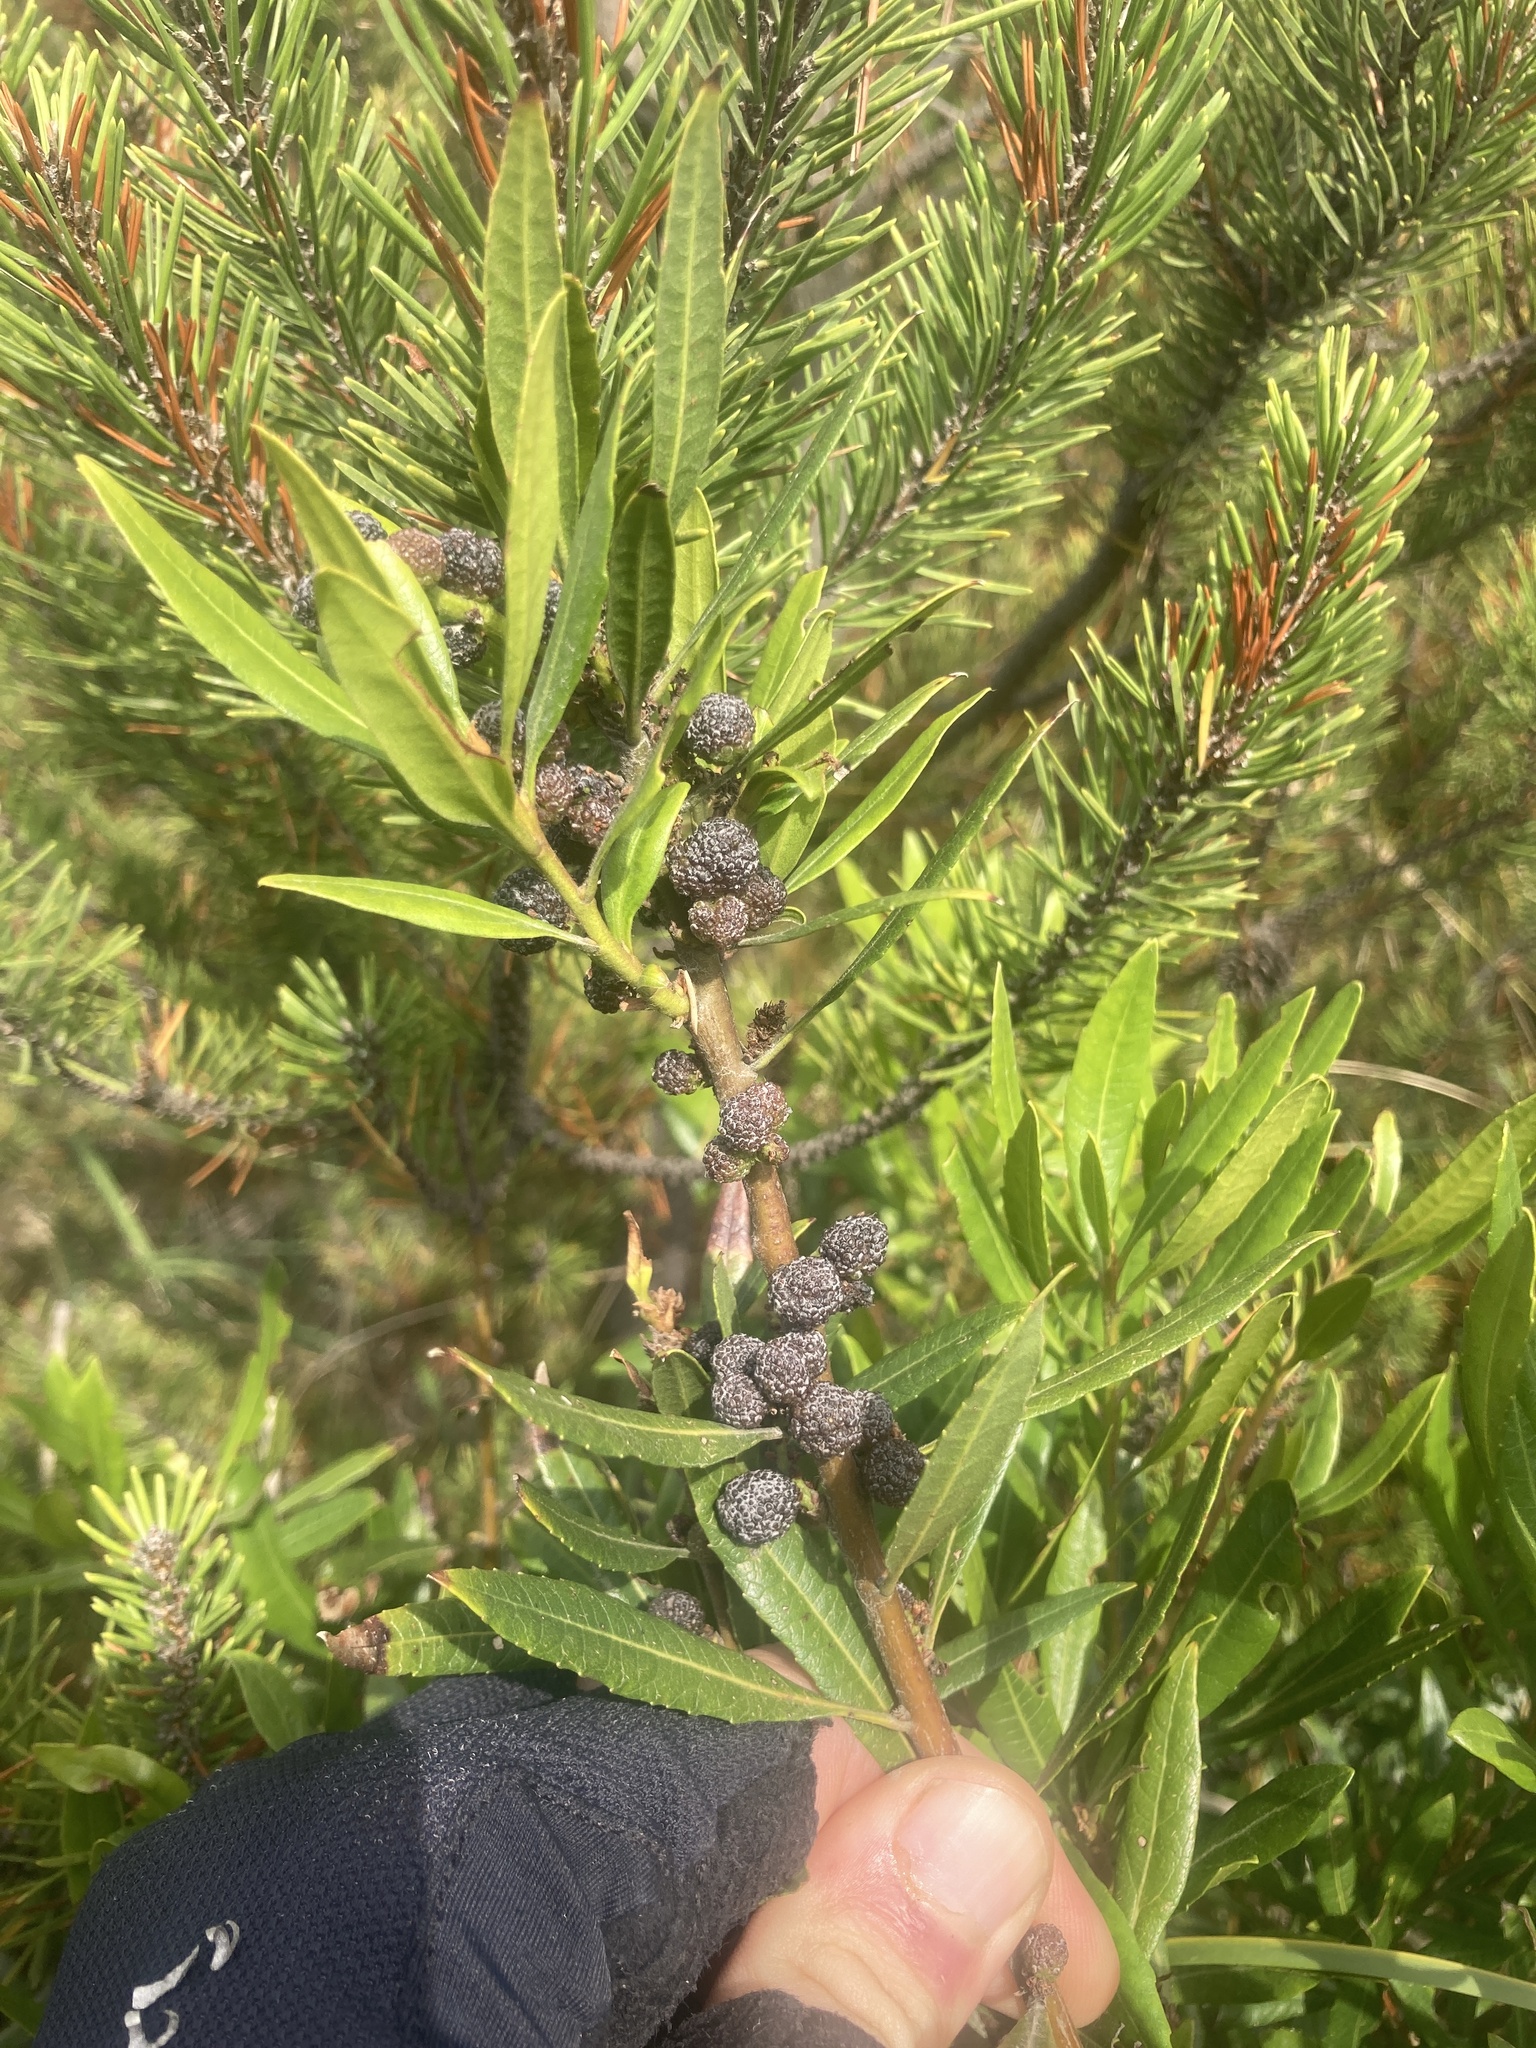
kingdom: Plantae
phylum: Tracheophyta
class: Magnoliopsida
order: Fagales
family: Myricaceae
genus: Morella
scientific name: Morella californica
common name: California wax-myrtle
